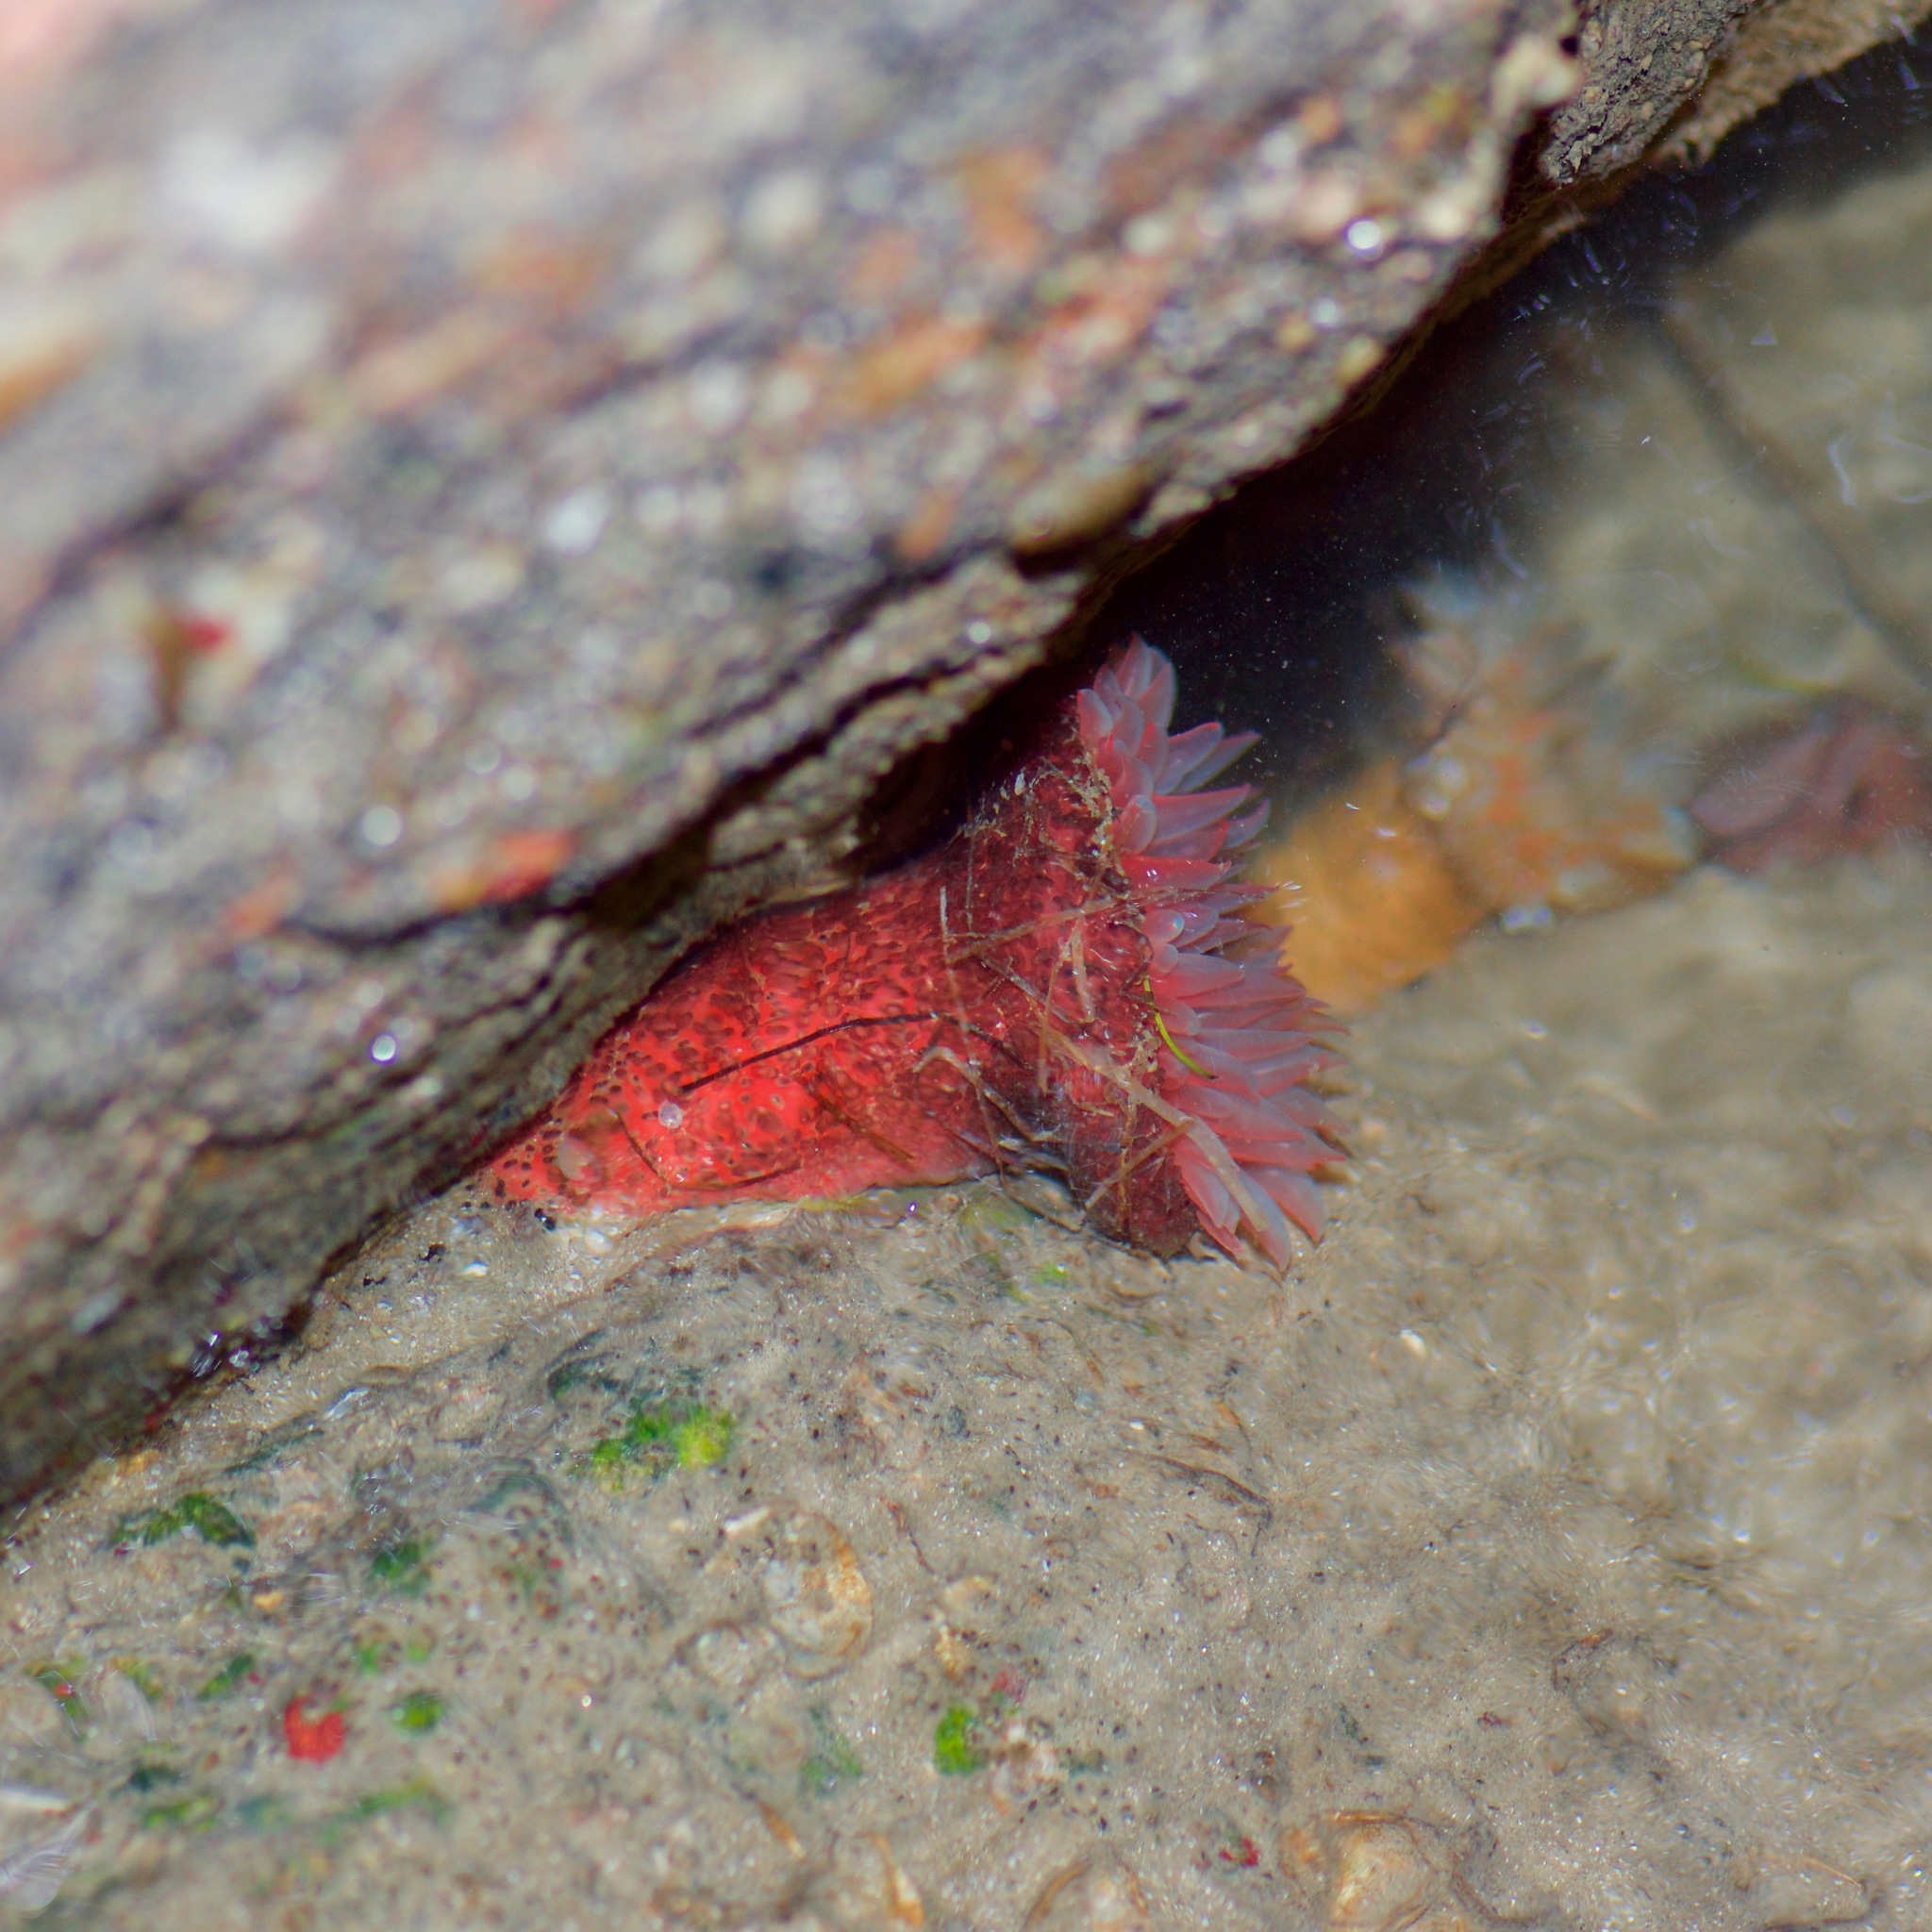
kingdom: Animalia
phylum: Cnidaria
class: Anthozoa
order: Actiniaria
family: Actiniidae
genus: Bunodosoma
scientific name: Bunodosoma cavernatum
